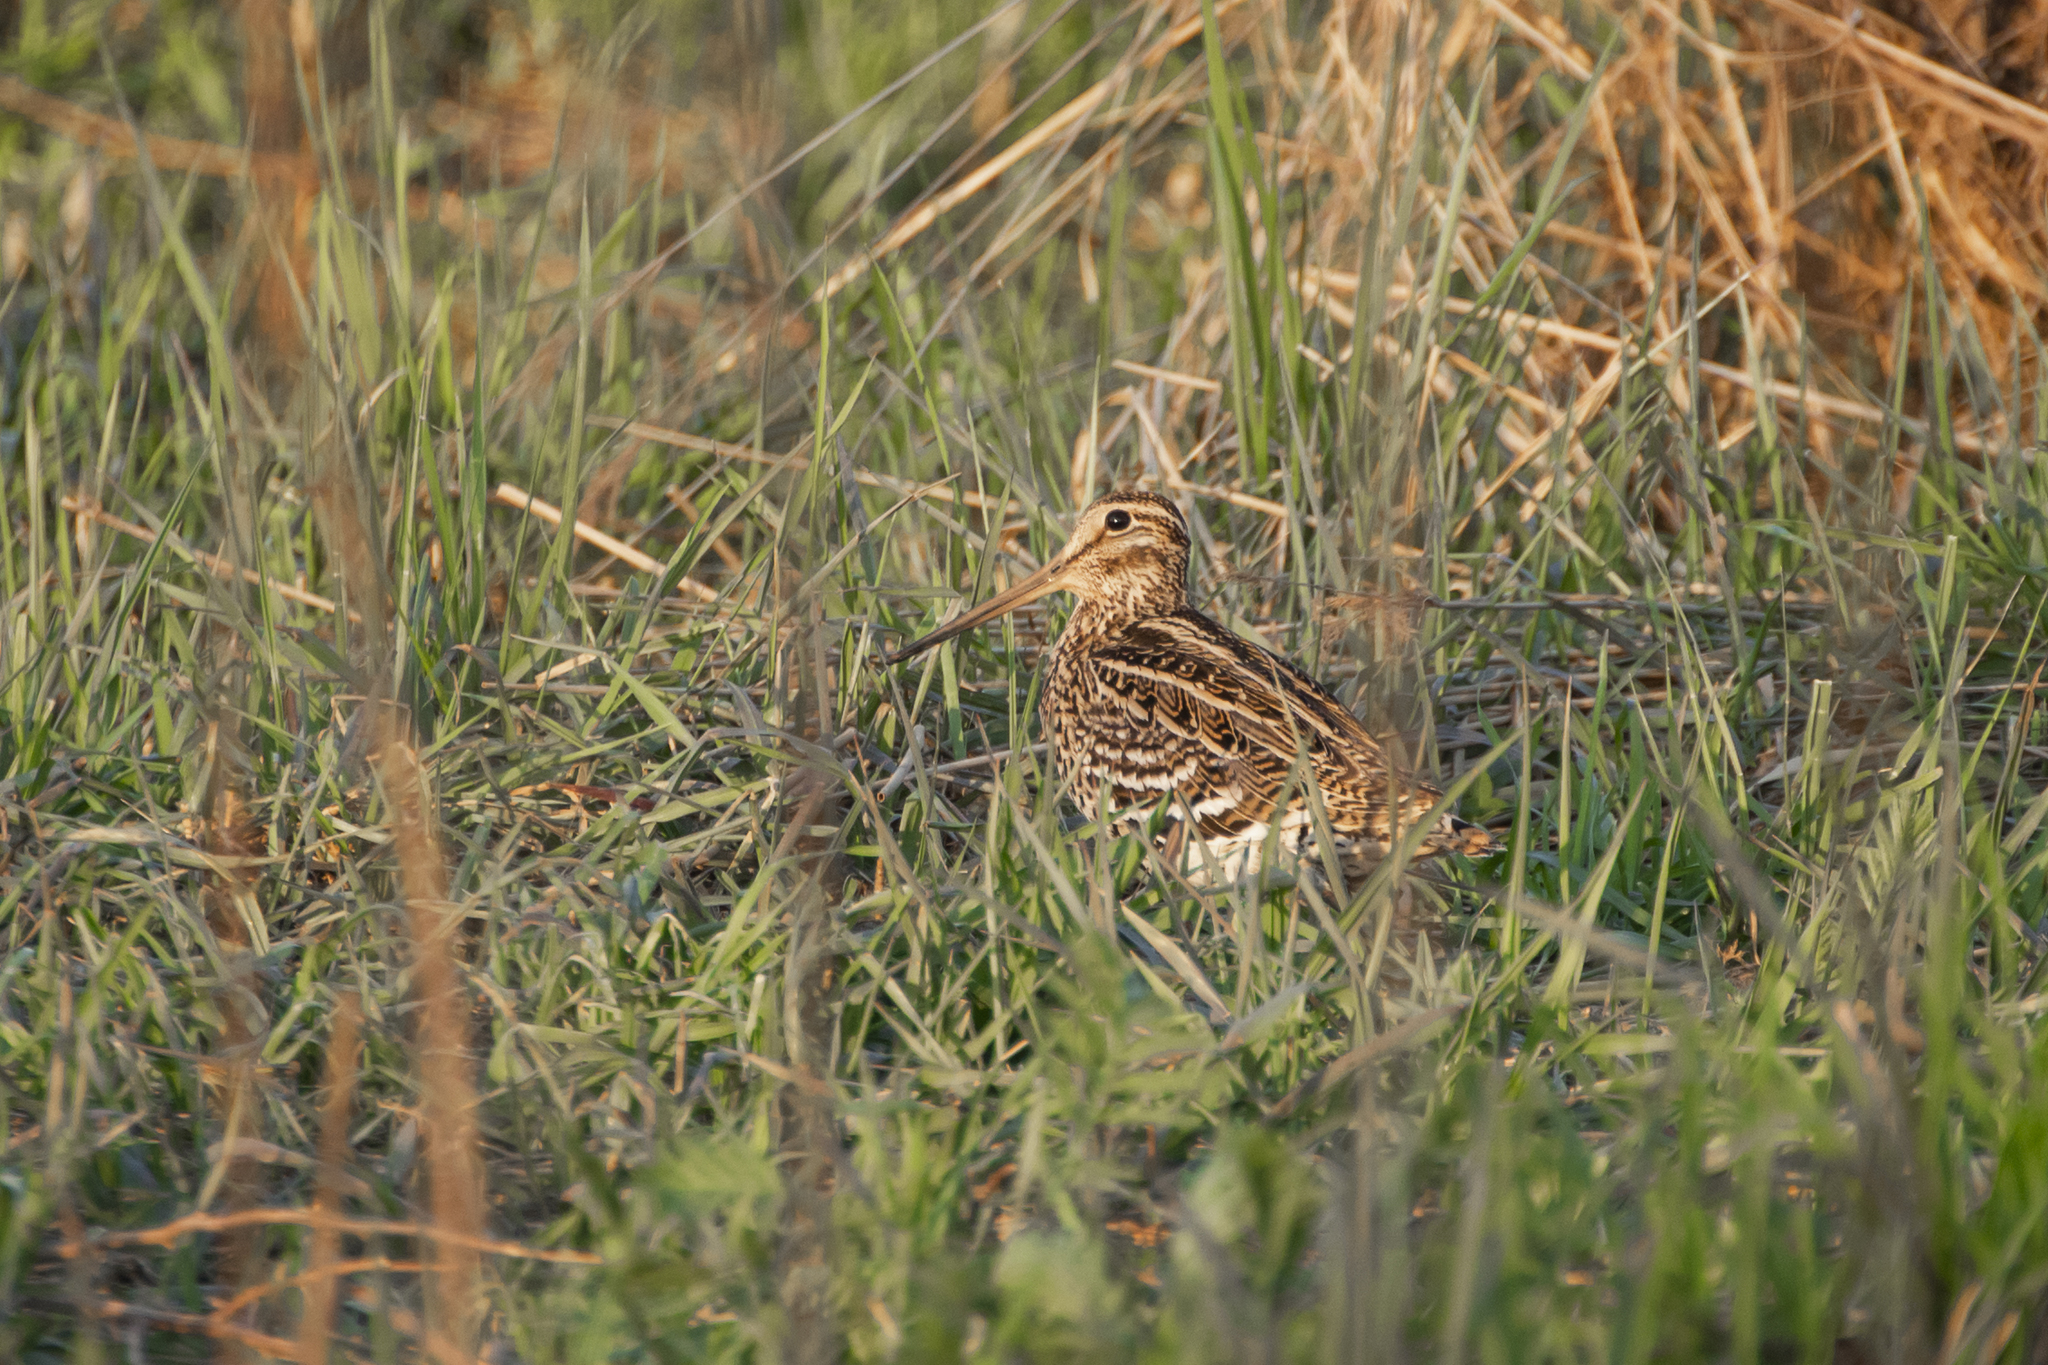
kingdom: Animalia
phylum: Chordata
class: Aves
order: Charadriiformes
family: Scolopacidae
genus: Gallinago
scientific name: Gallinago media
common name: Great snipe
